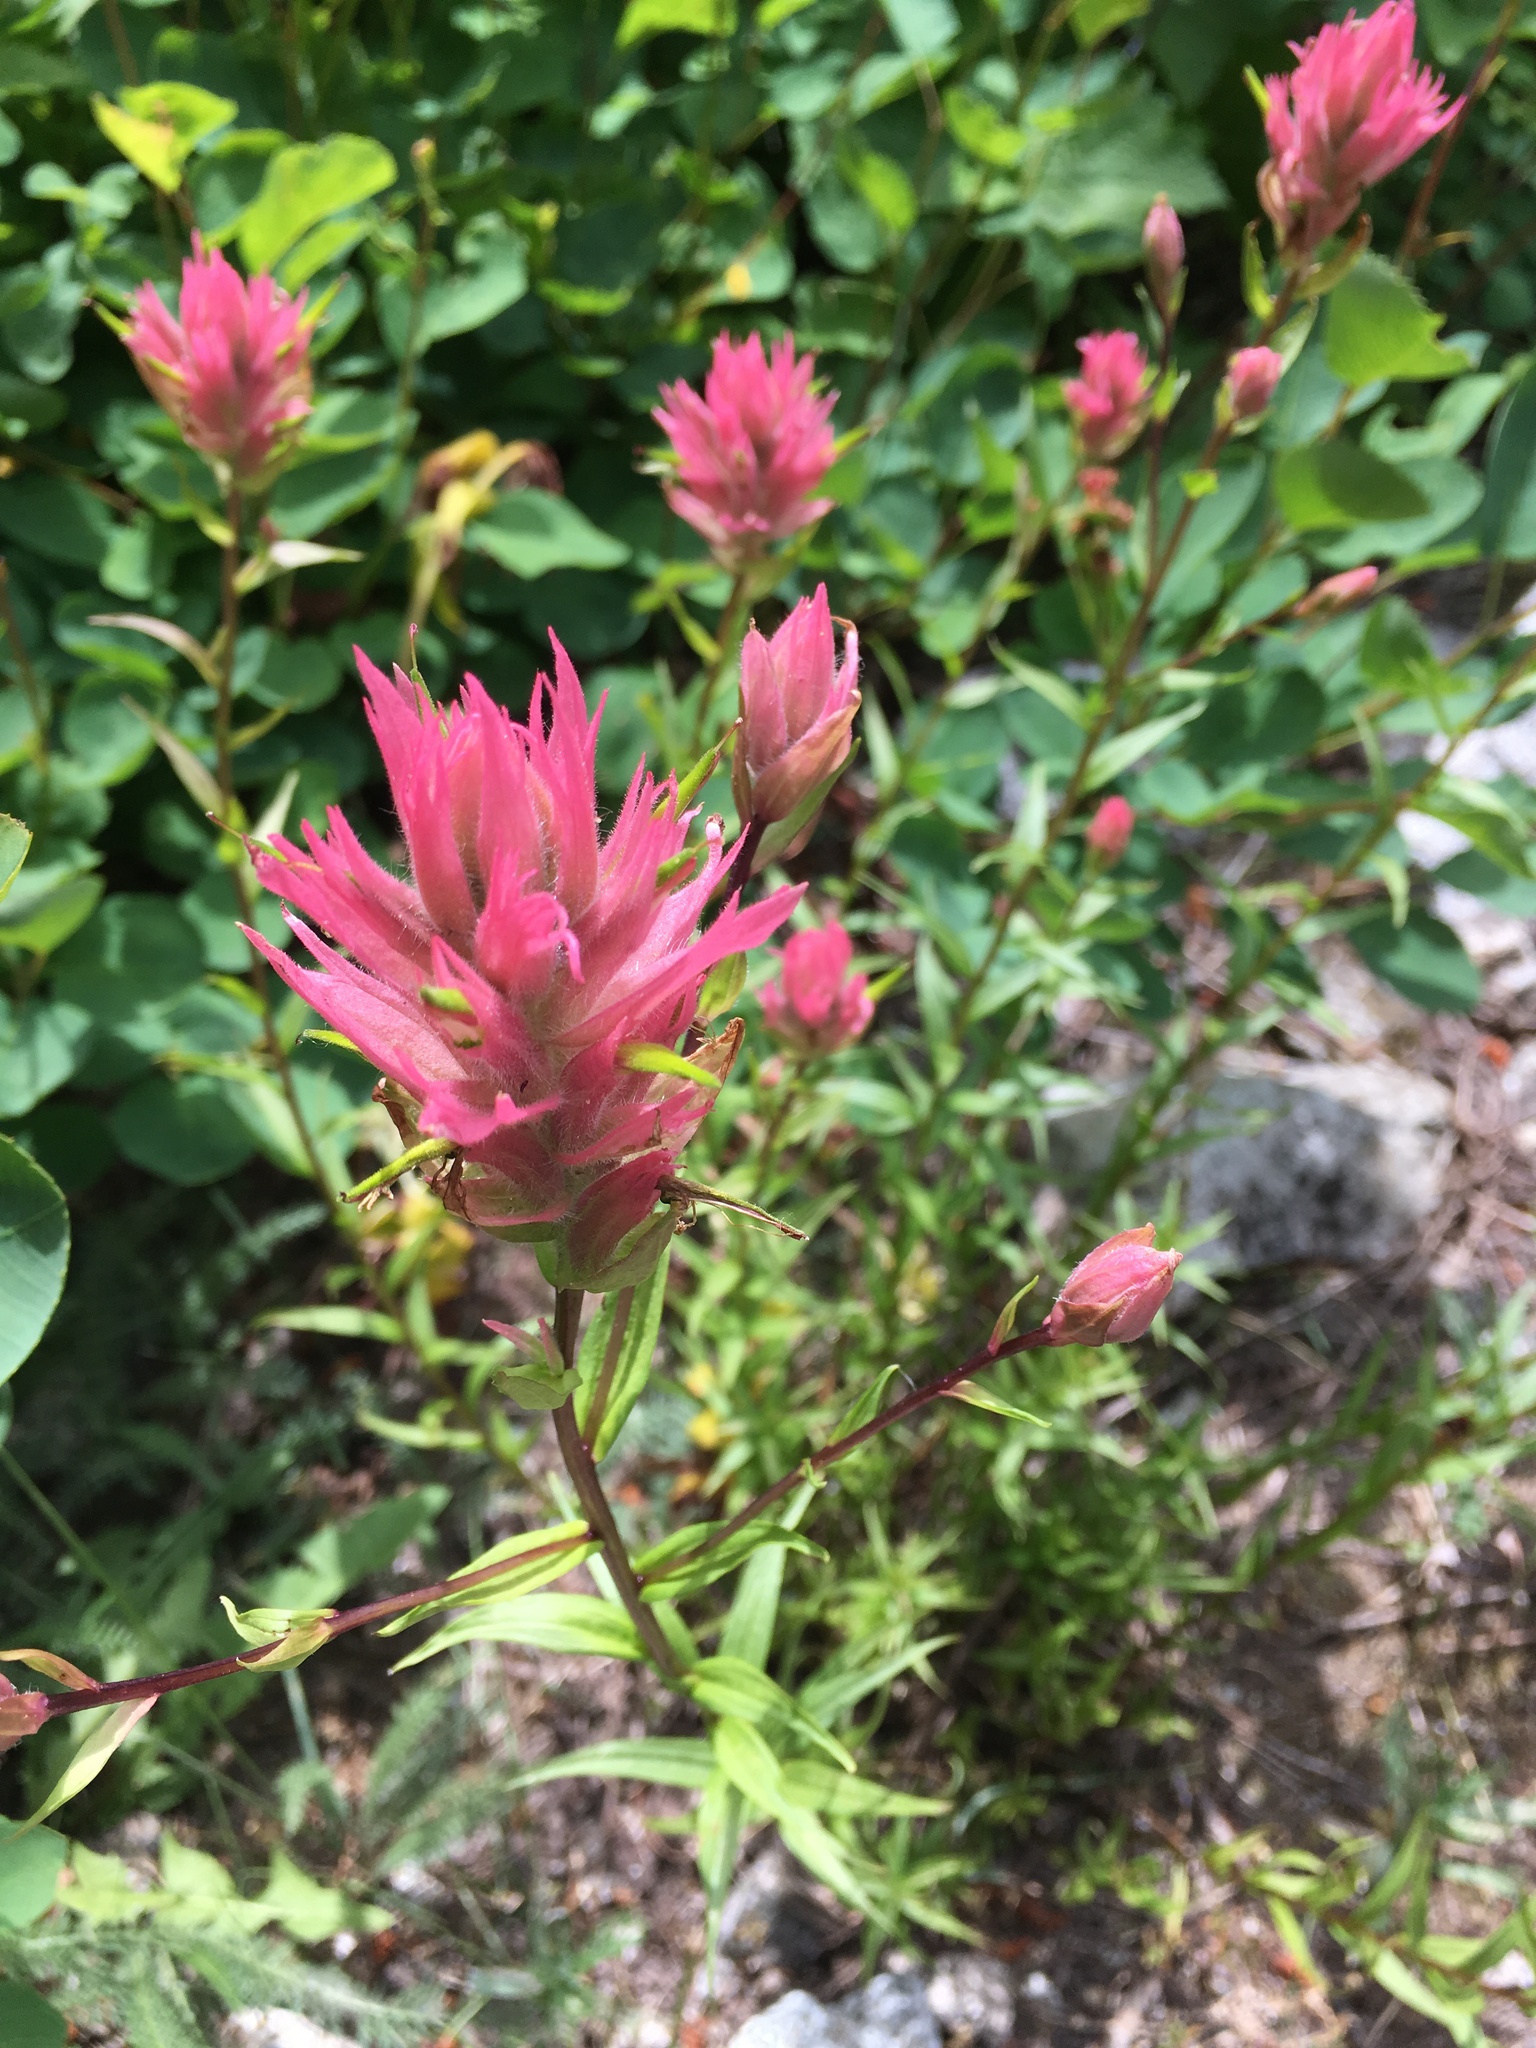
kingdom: Plantae
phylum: Tracheophyta
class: Magnoliopsida
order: Lamiales
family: Orobanchaceae
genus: Castilleja
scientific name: Castilleja miniata
